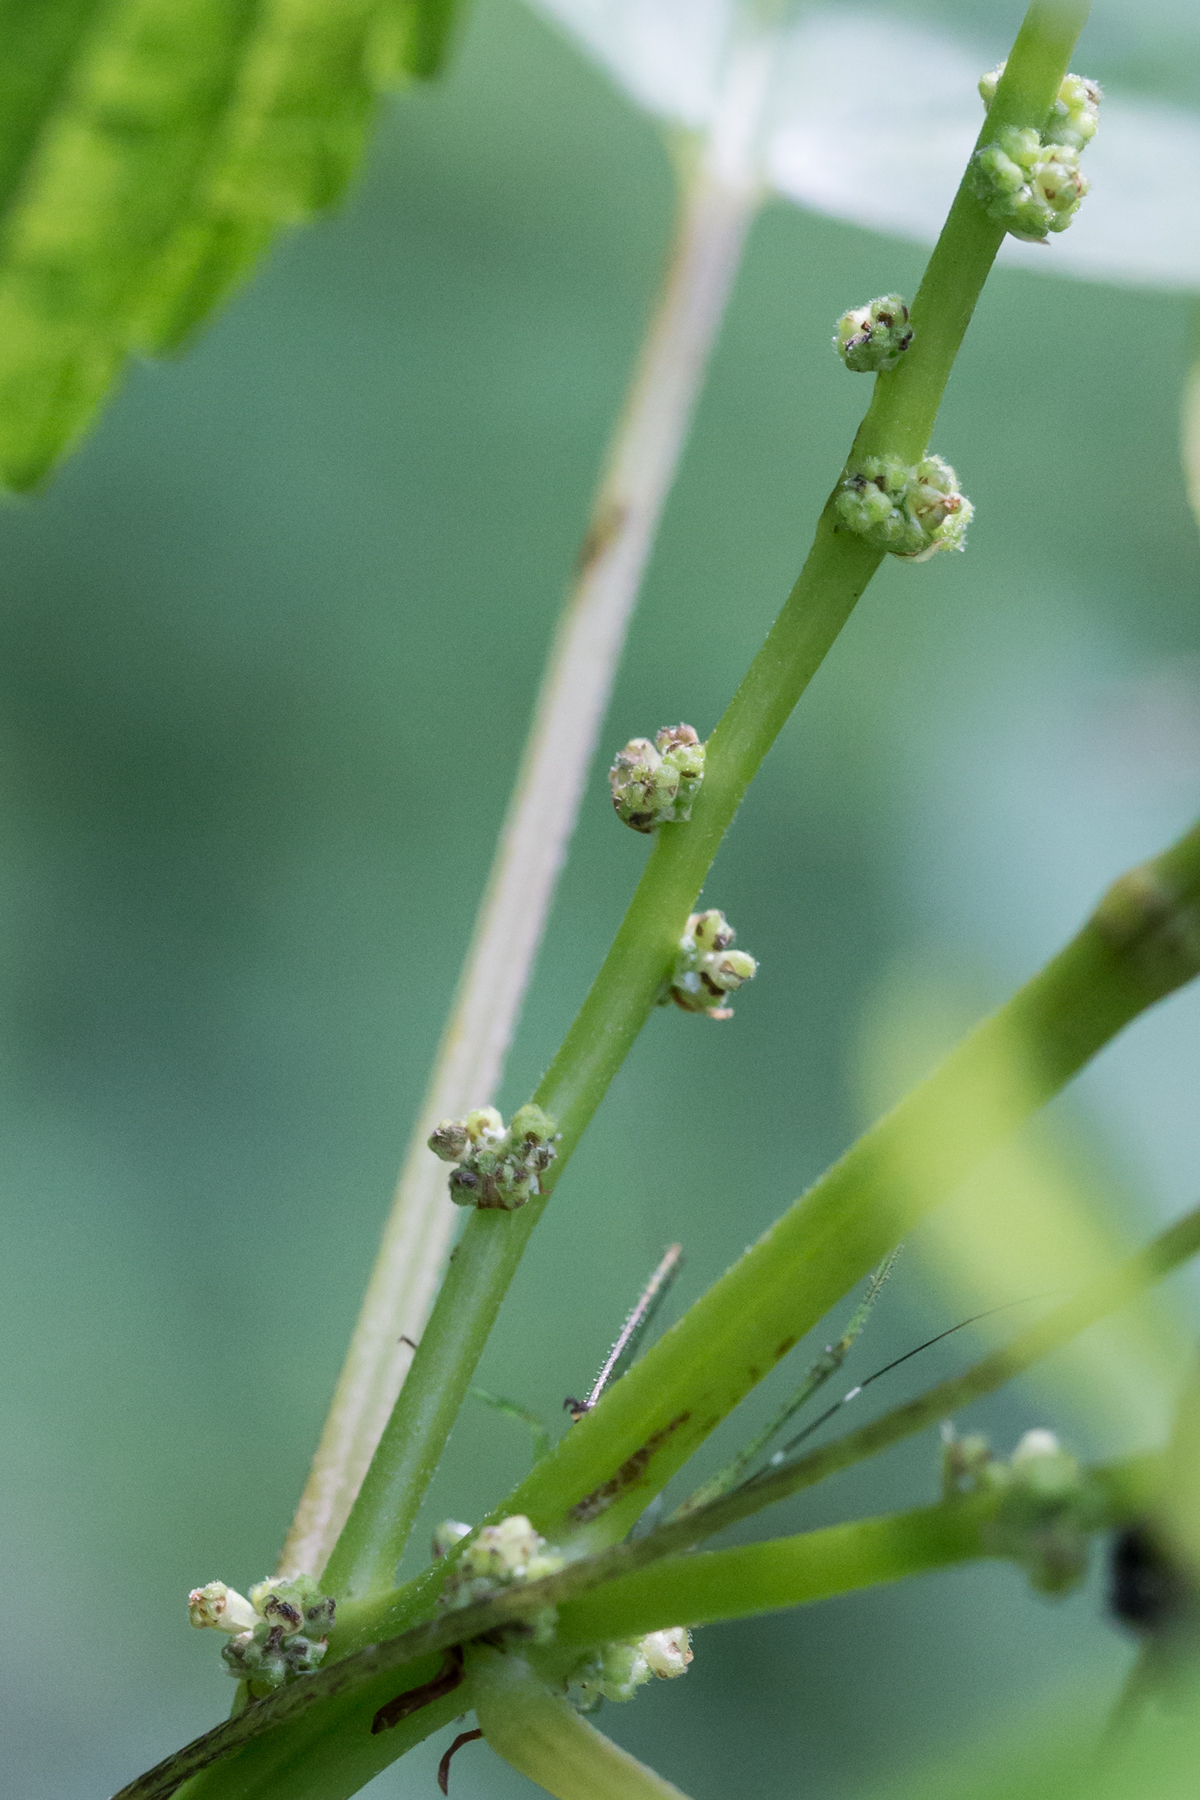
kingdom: Plantae
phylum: Tracheophyta
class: Magnoliopsida
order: Rosales
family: Urticaceae
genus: Boehmeria
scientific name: Boehmeria cylindrica
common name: Bog-hemp
